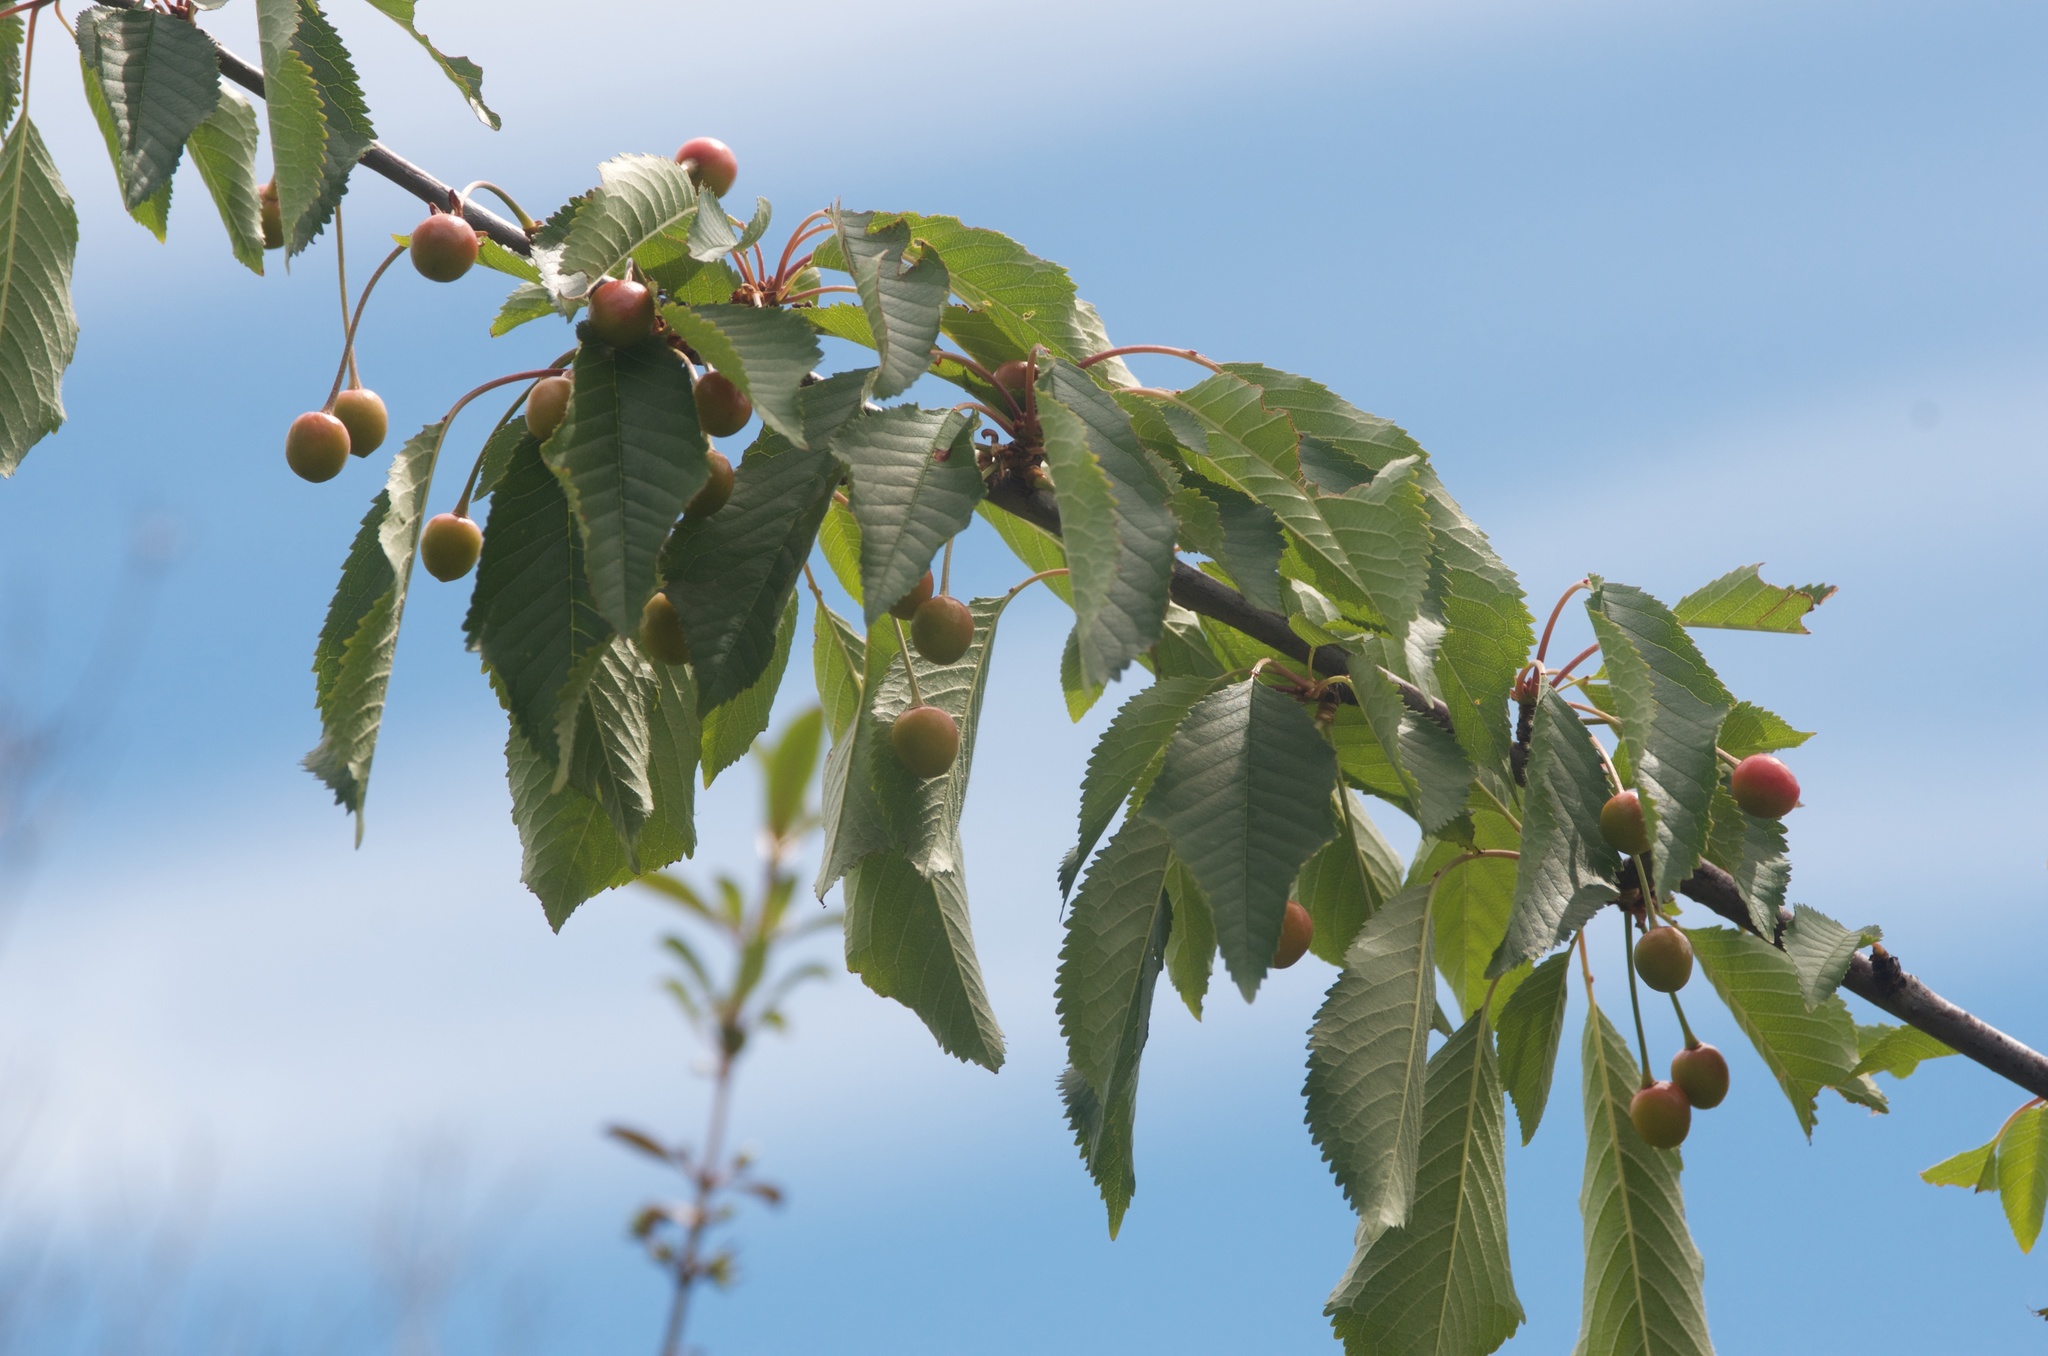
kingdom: Plantae
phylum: Tracheophyta
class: Magnoliopsida
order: Rosales
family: Rosaceae
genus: Prunus
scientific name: Prunus avium
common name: Sweet cherry
